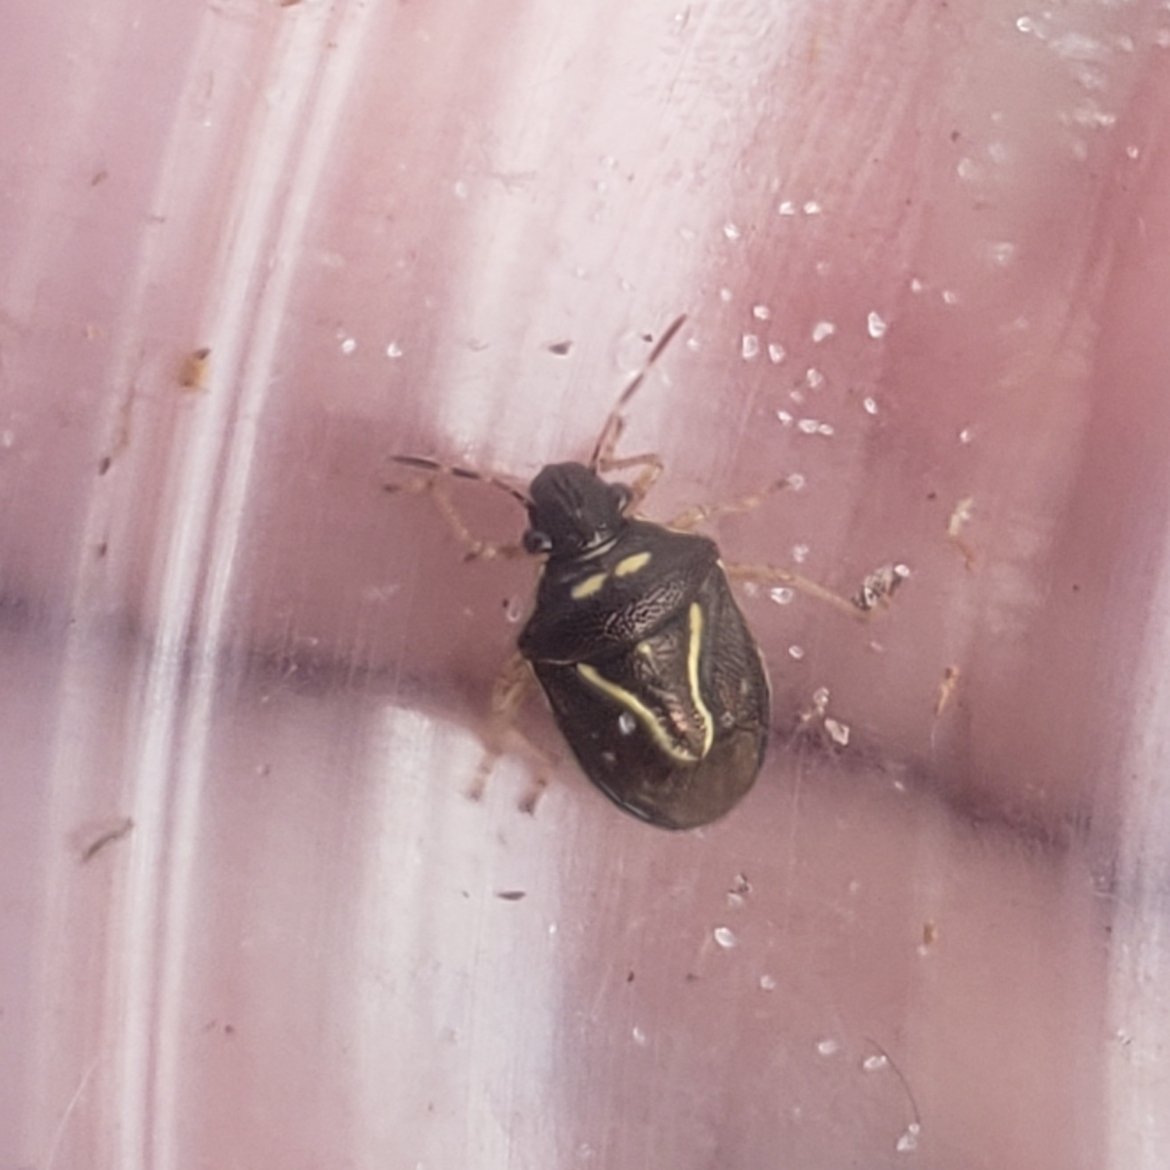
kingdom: Animalia
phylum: Arthropoda
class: Insecta
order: Hemiptera
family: Pentatomidae
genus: Mormidea
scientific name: Mormidea lugens
